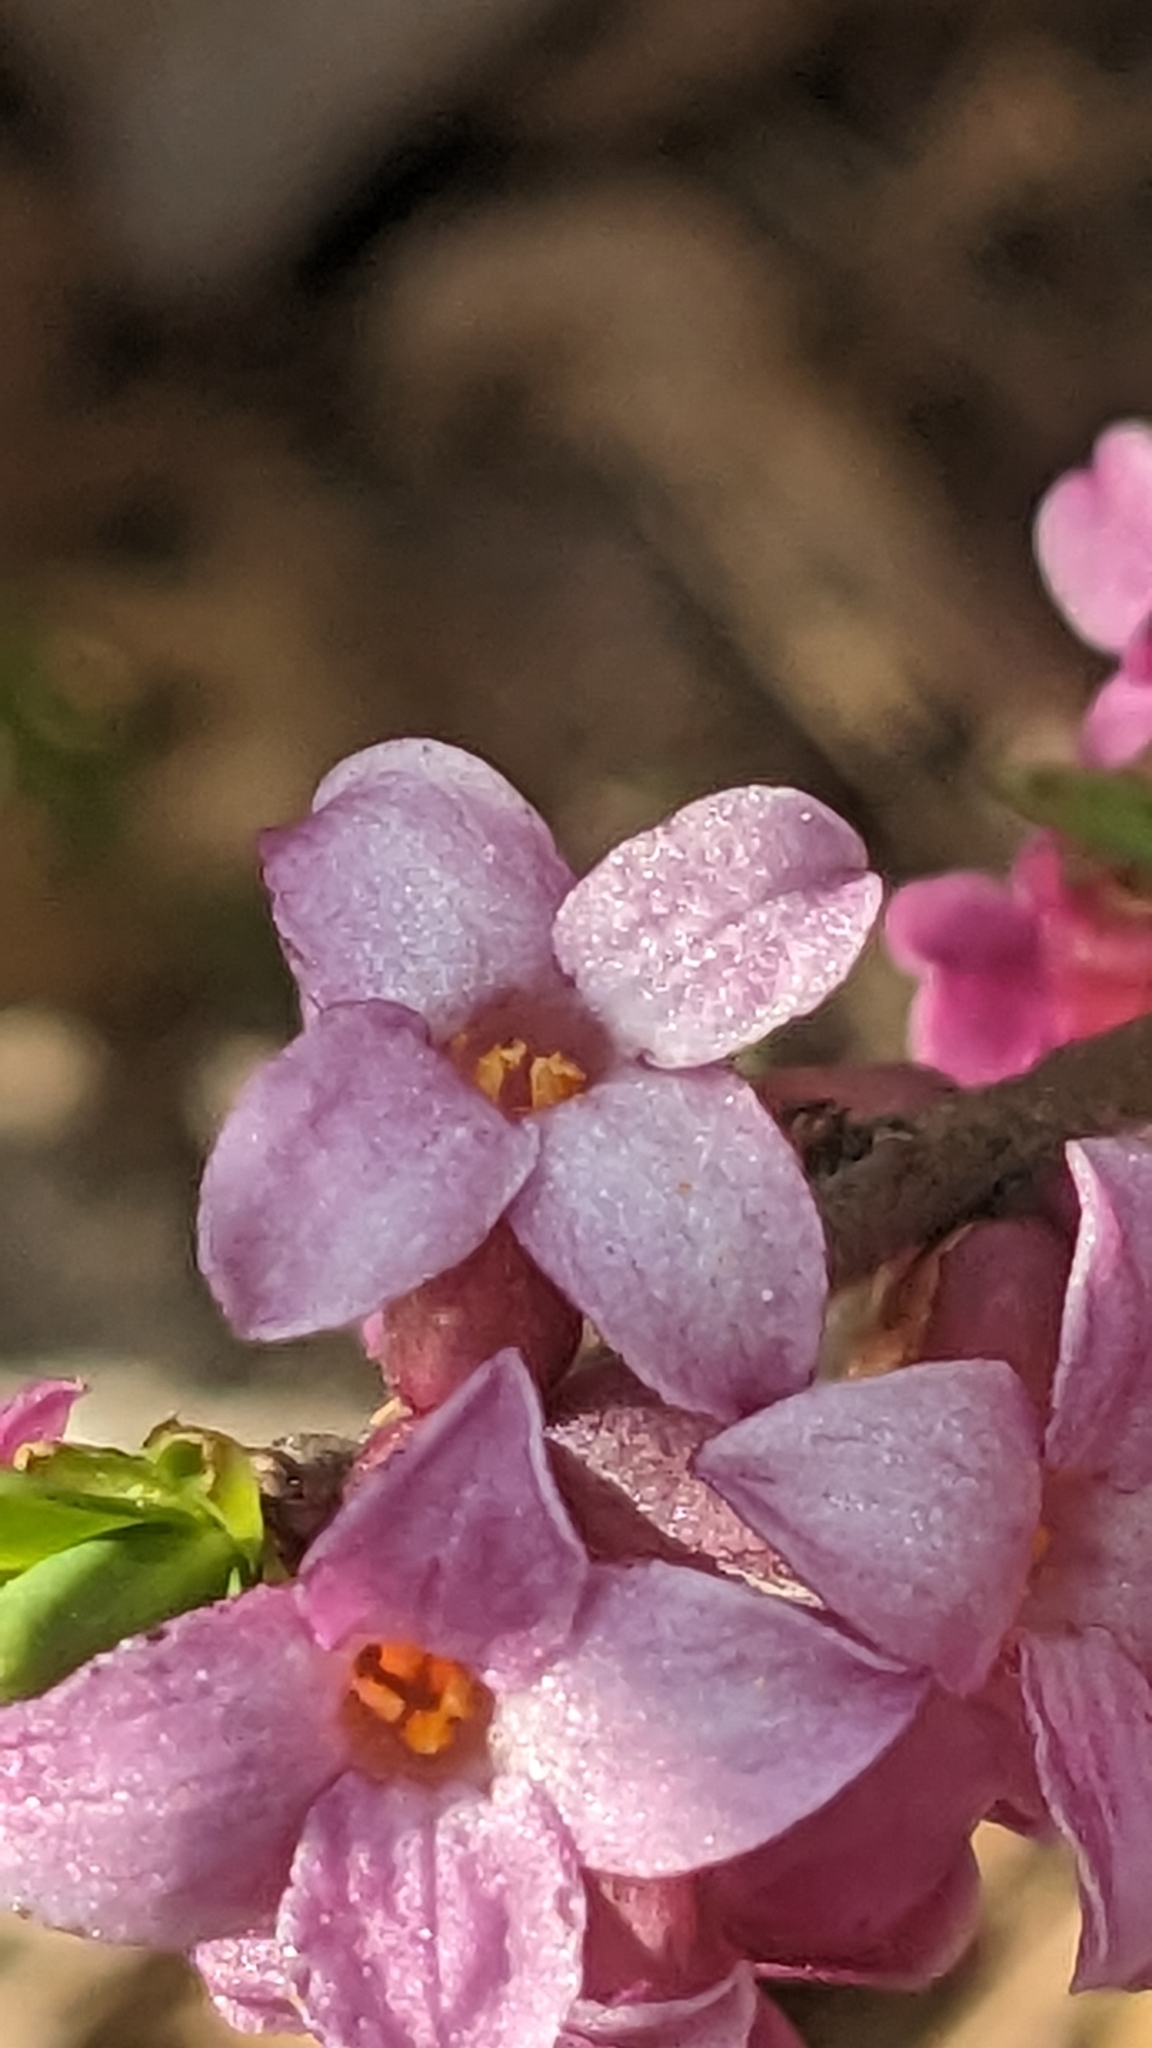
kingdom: Plantae
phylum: Tracheophyta
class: Magnoliopsida
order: Malvales
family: Thymelaeaceae
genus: Daphne
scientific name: Daphne mezereum
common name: Mezereon
